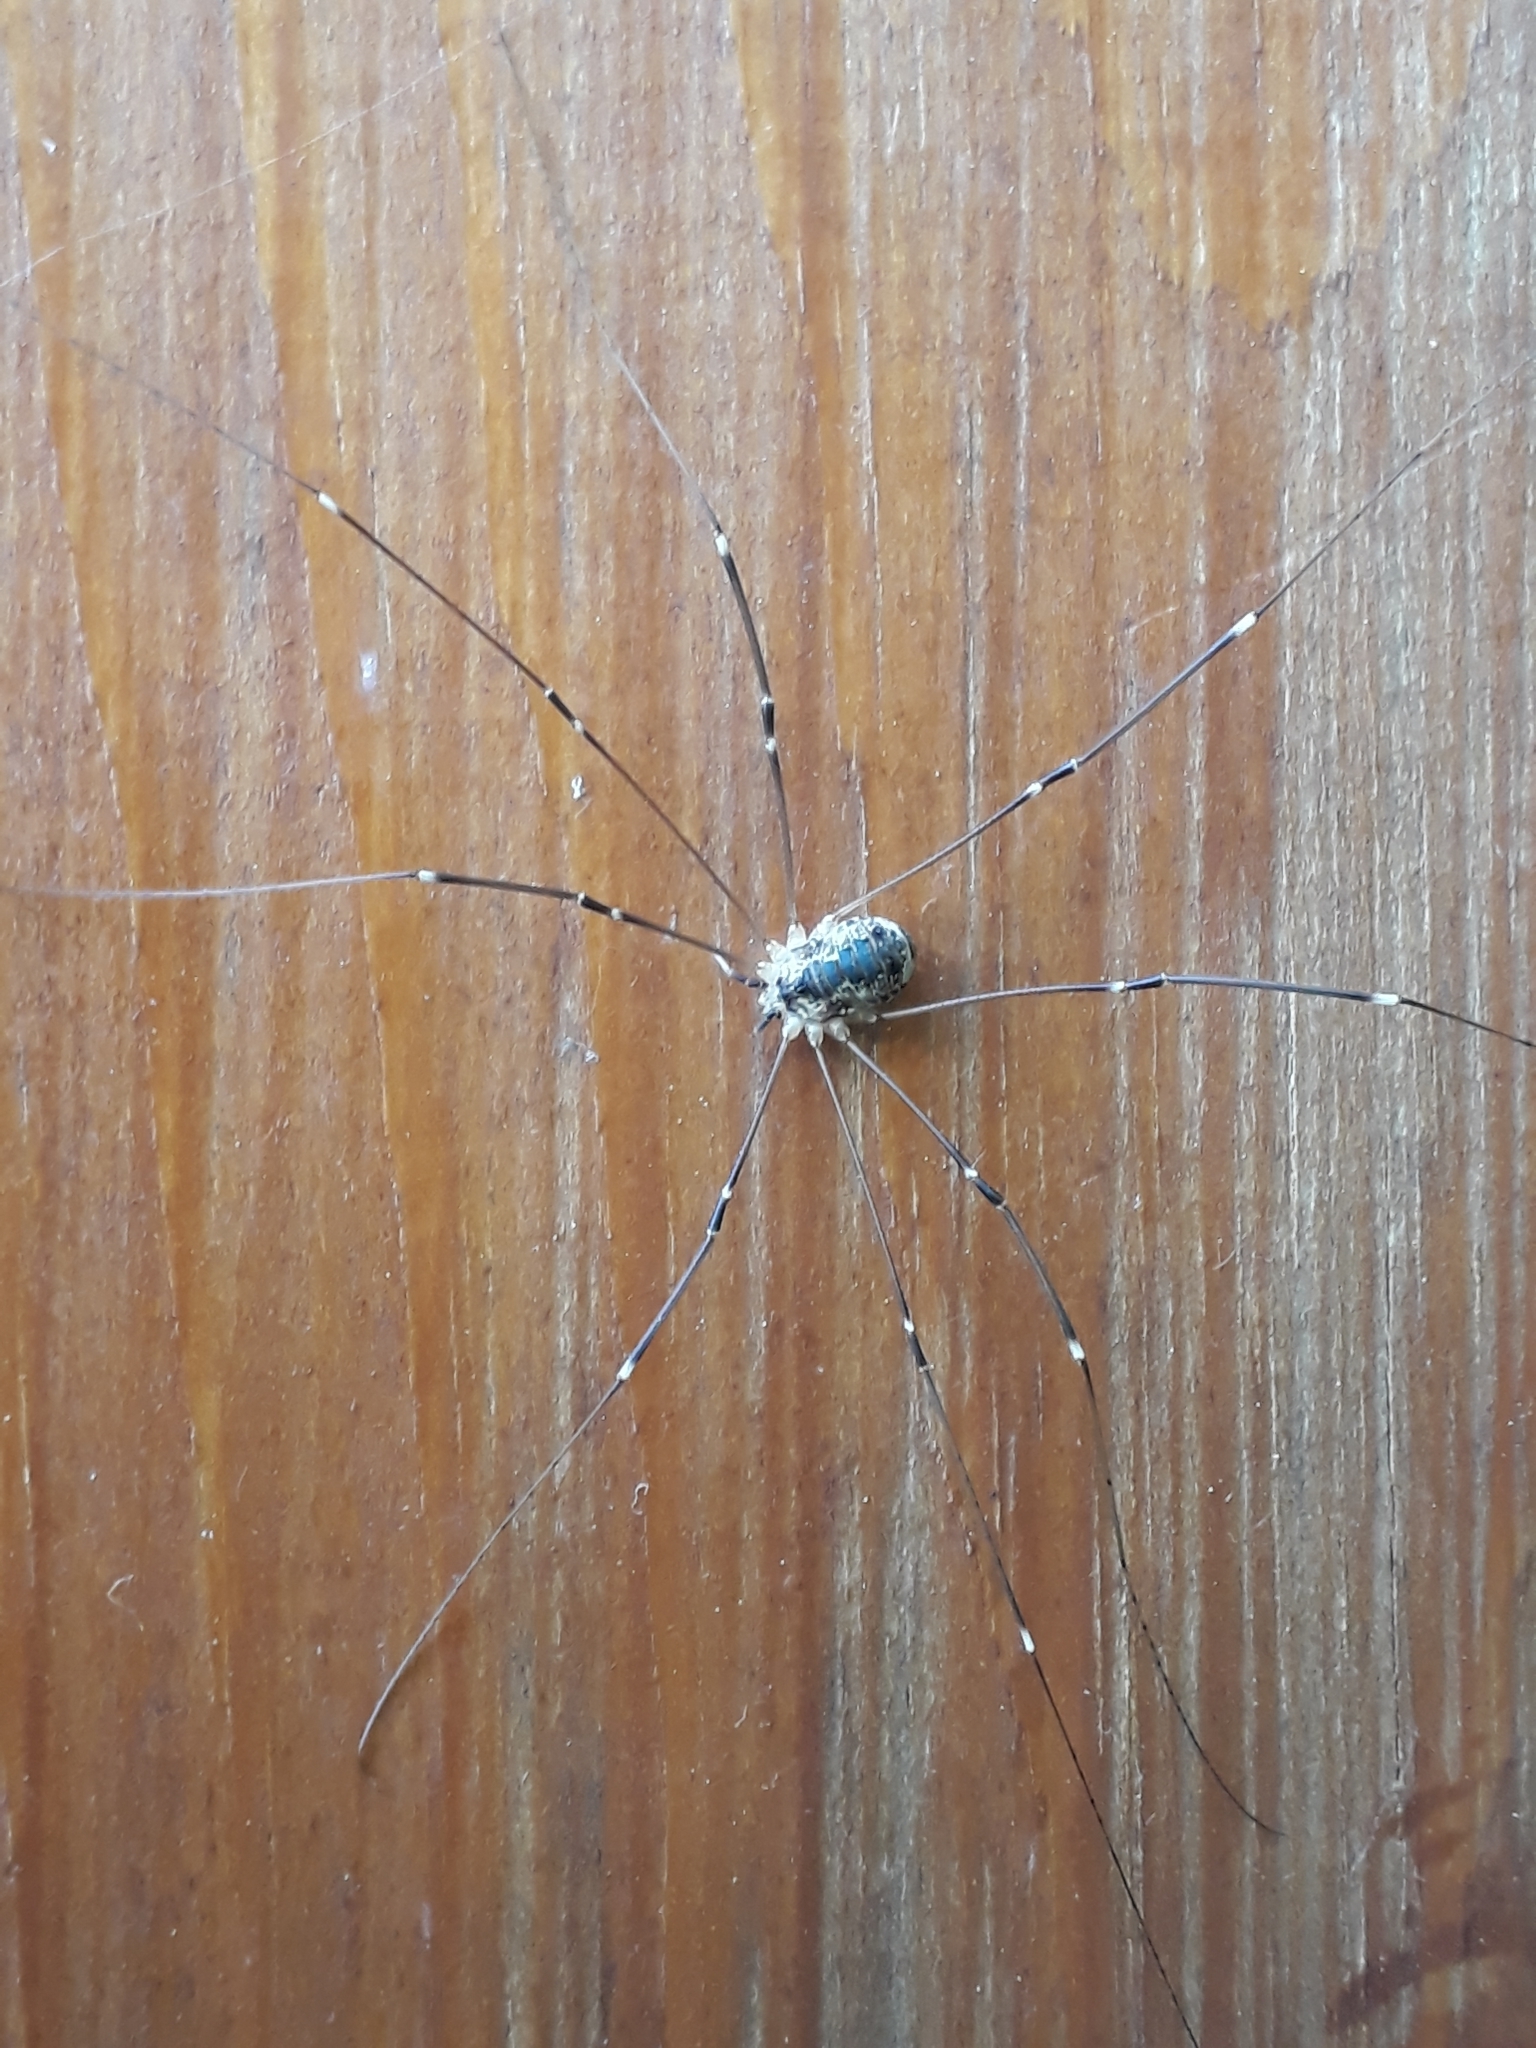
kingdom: Animalia
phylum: Arthropoda
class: Arachnida
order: Opiliones
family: Sclerosomatidae
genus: Leiobunum
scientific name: Leiobunum gracile
